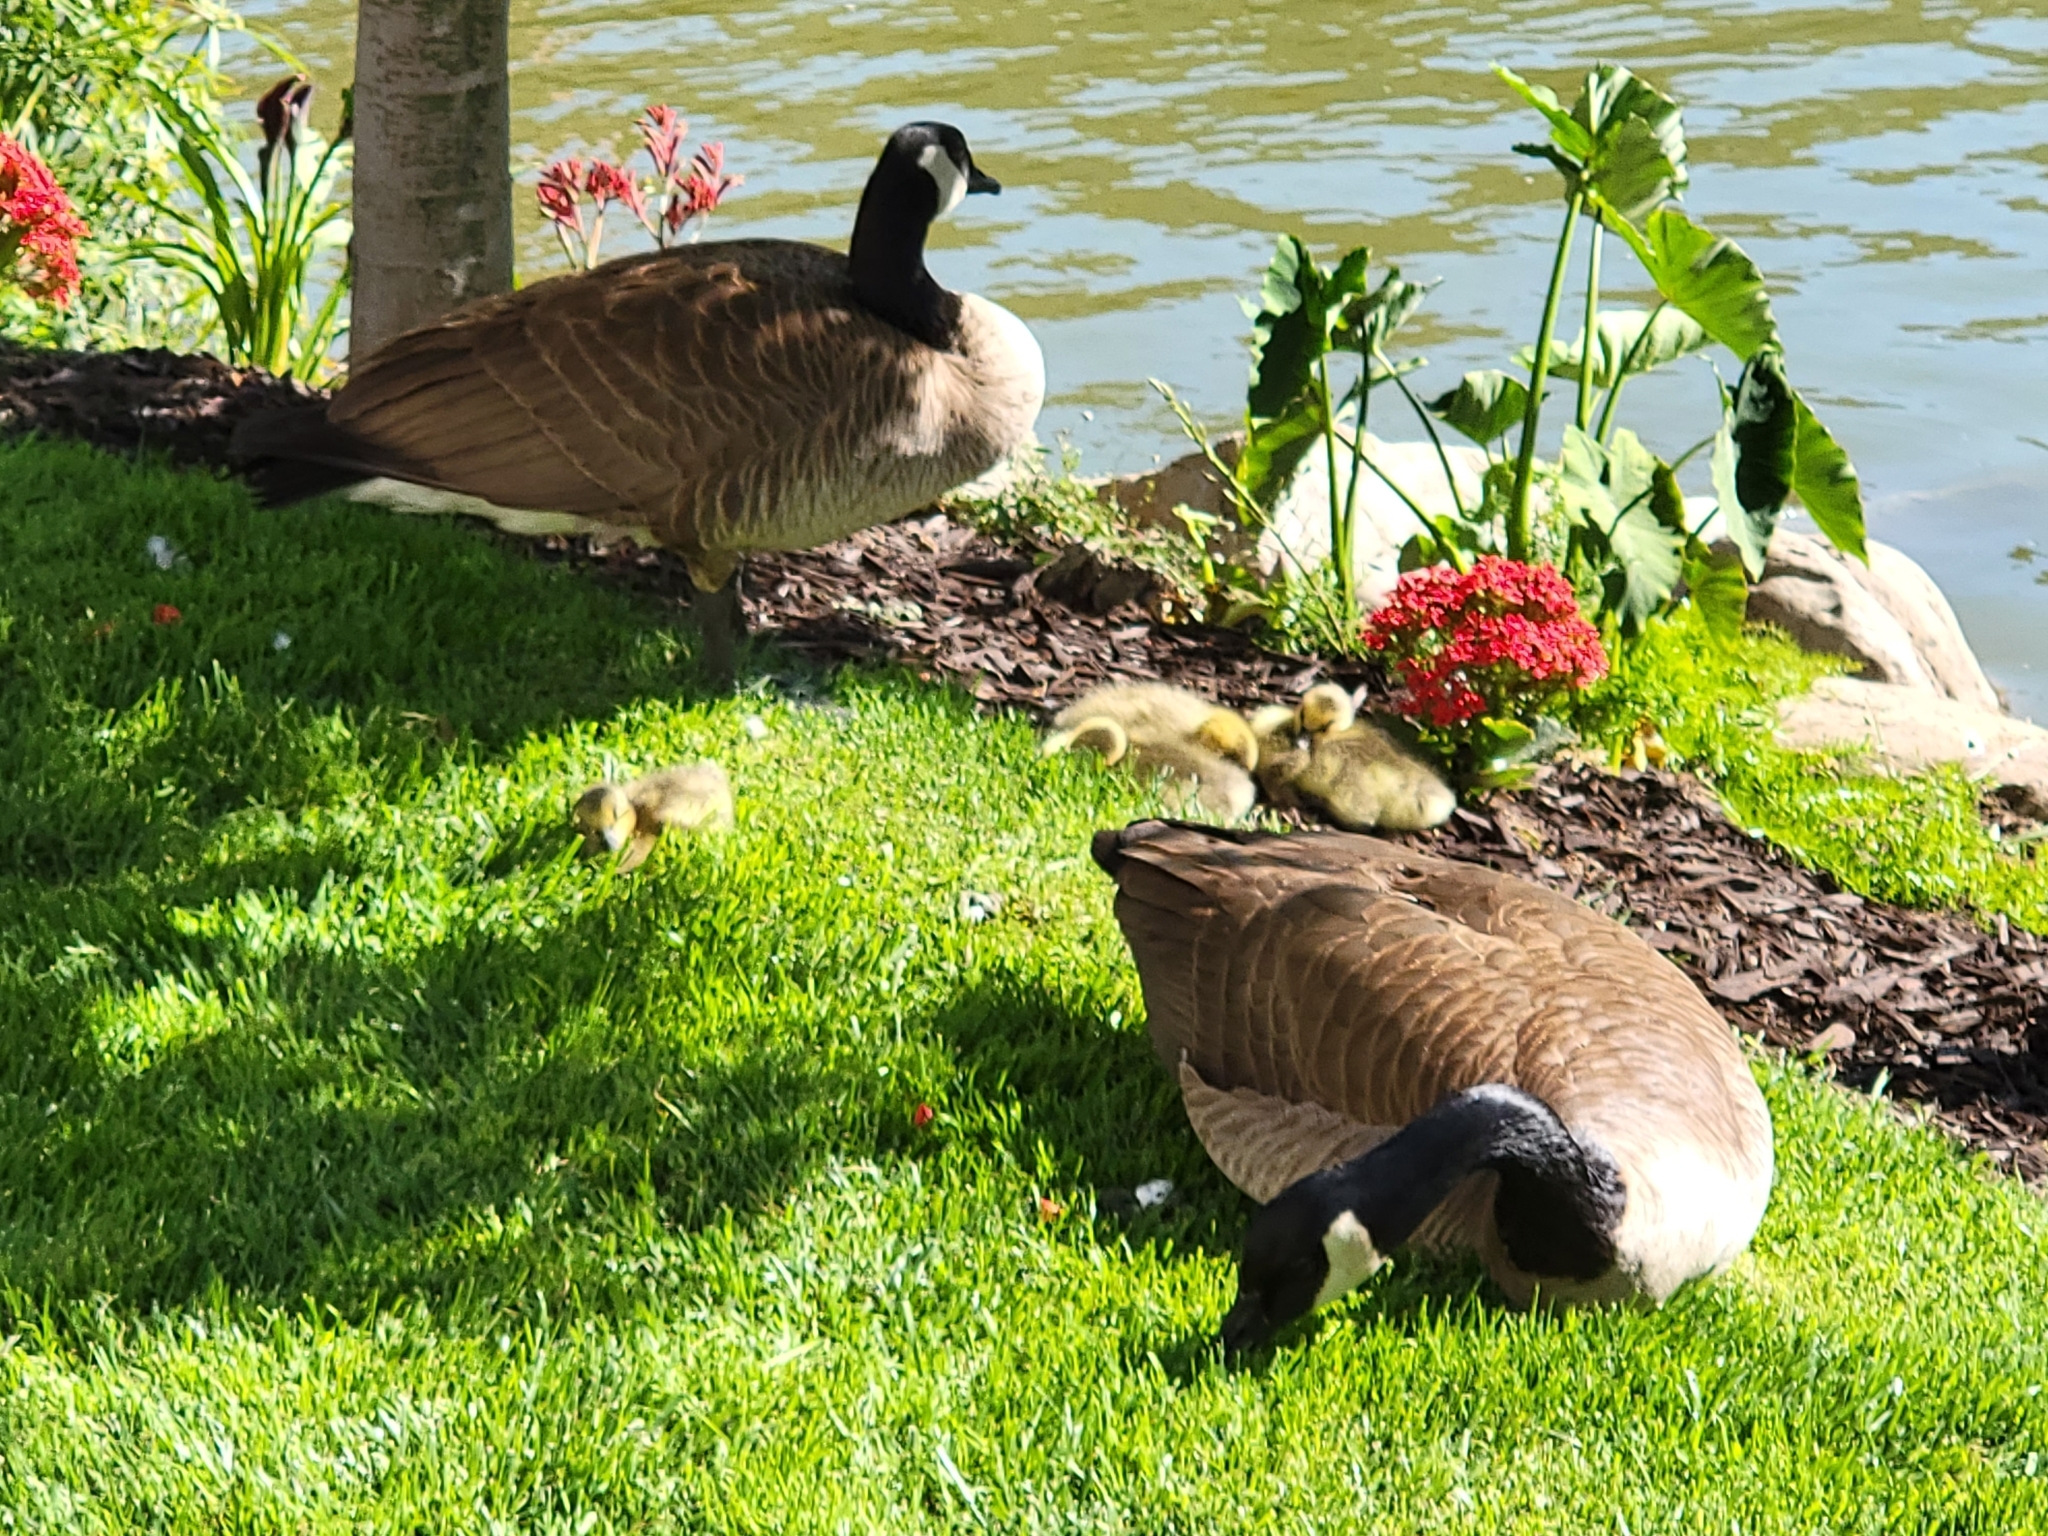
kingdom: Animalia
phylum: Chordata
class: Aves
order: Anseriformes
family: Anatidae
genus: Branta
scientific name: Branta canadensis
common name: Canada goose
